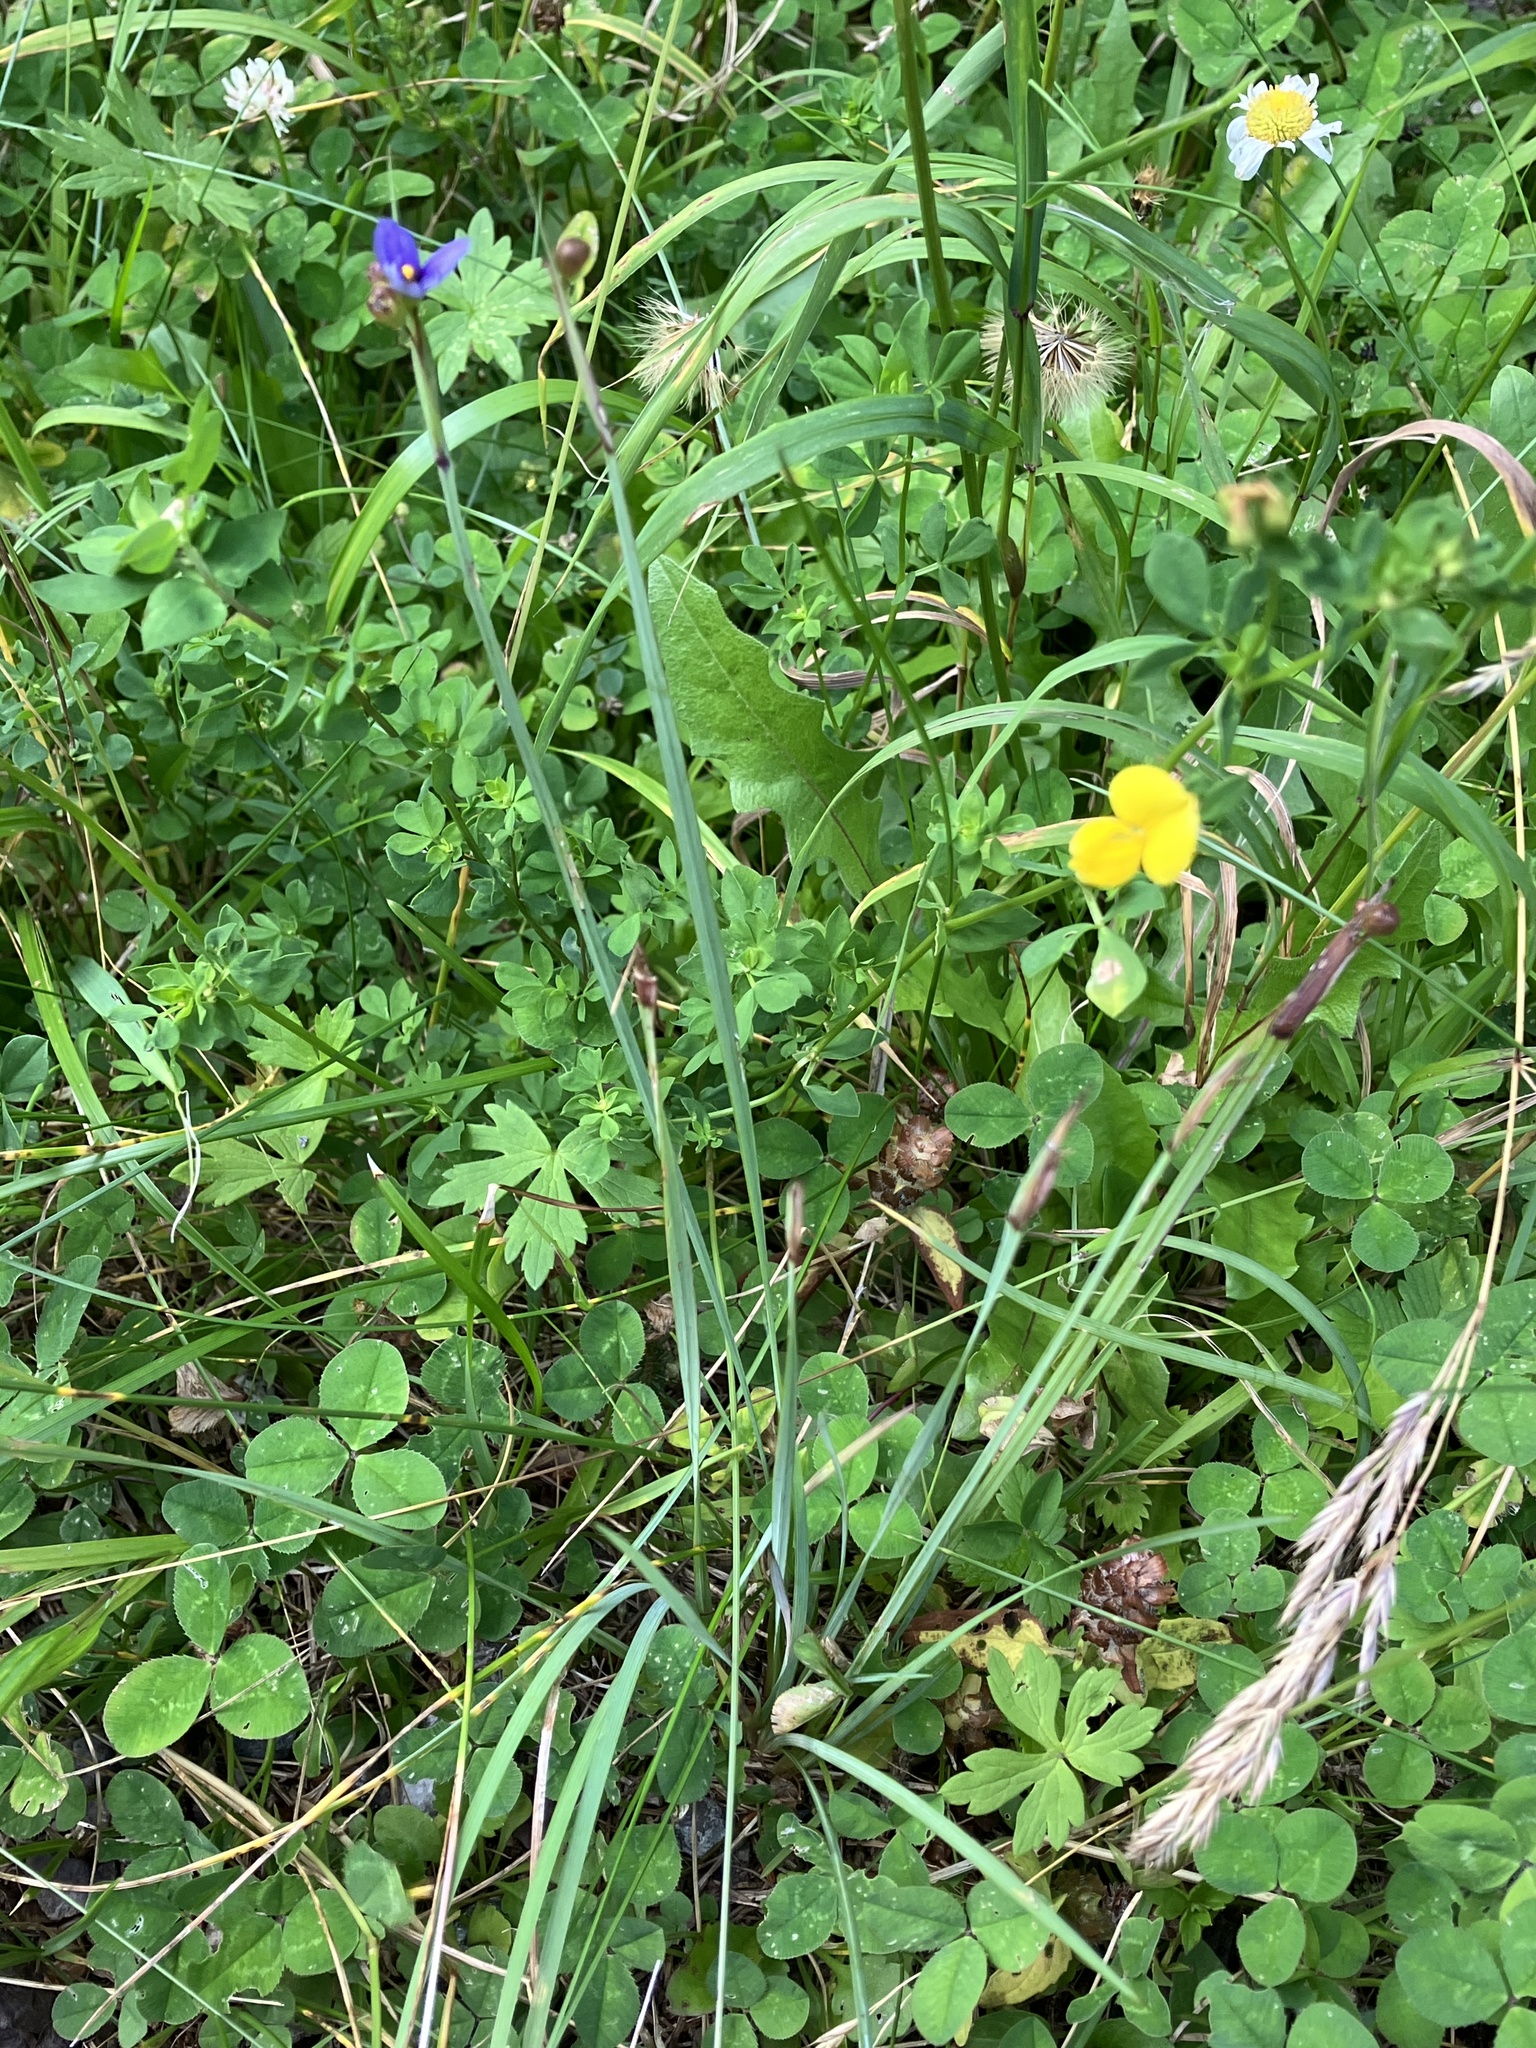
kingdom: Plantae
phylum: Tracheophyta
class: Liliopsida
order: Asparagales
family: Iridaceae
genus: Sisyrinchium
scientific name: Sisyrinchium montanum
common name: American blue-eyed-grass
